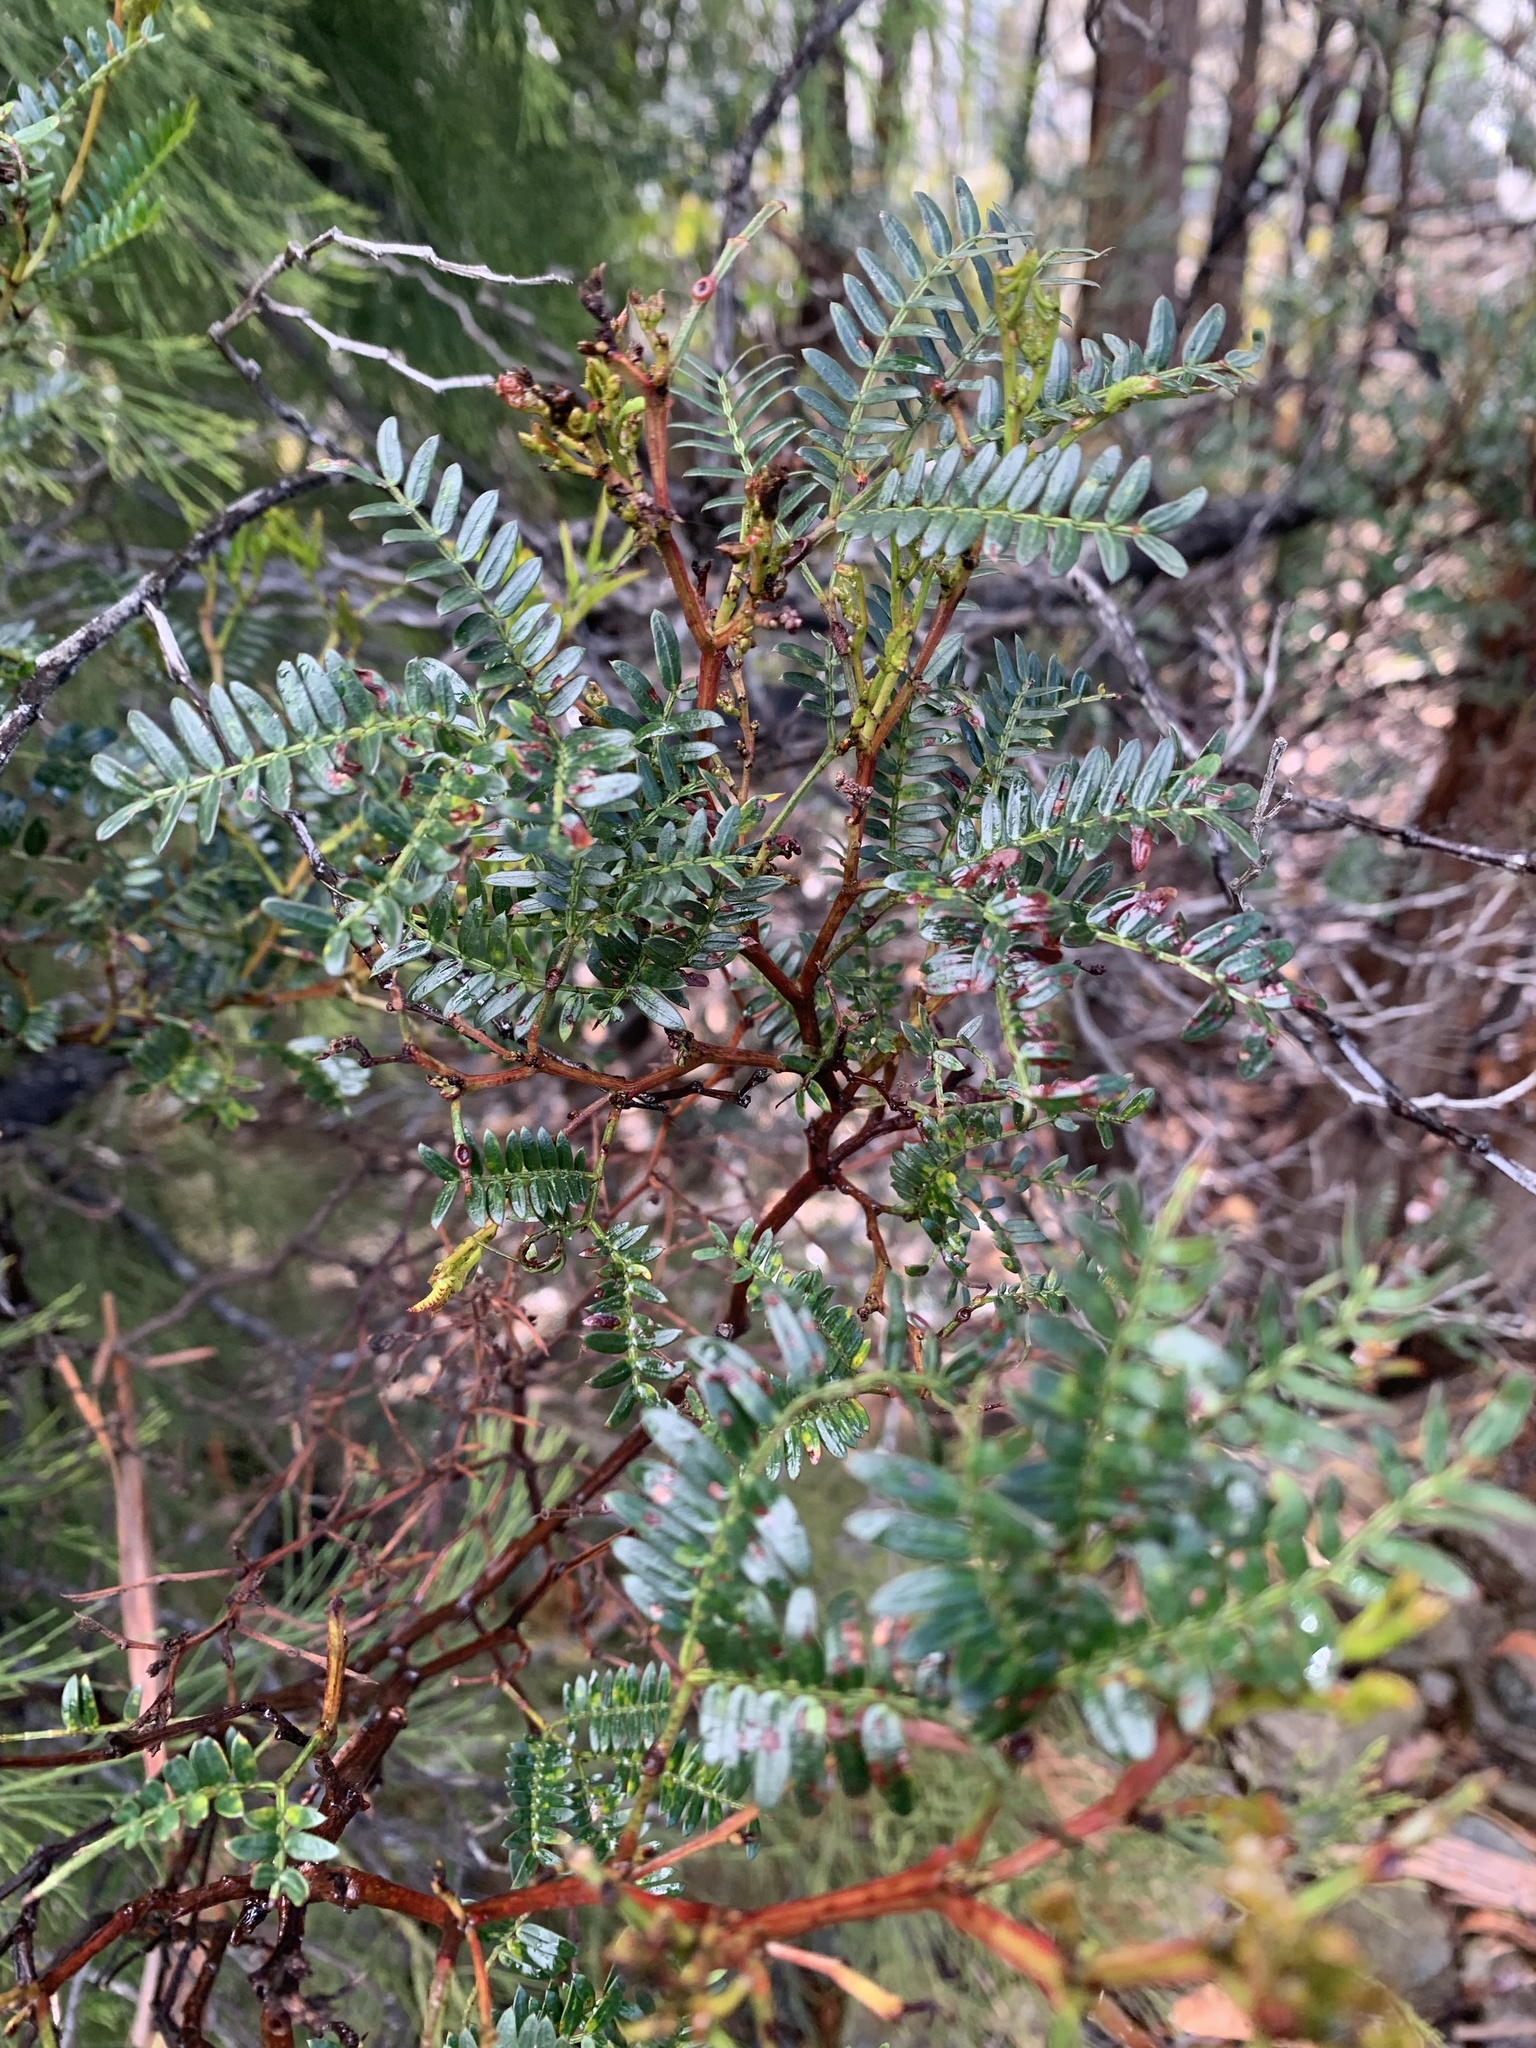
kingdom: Plantae
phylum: Tracheophyta
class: Magnoliopsida
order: Fabales
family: Fabaceae
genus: Acacia
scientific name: Acacia terminalis
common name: Cedar wattle
